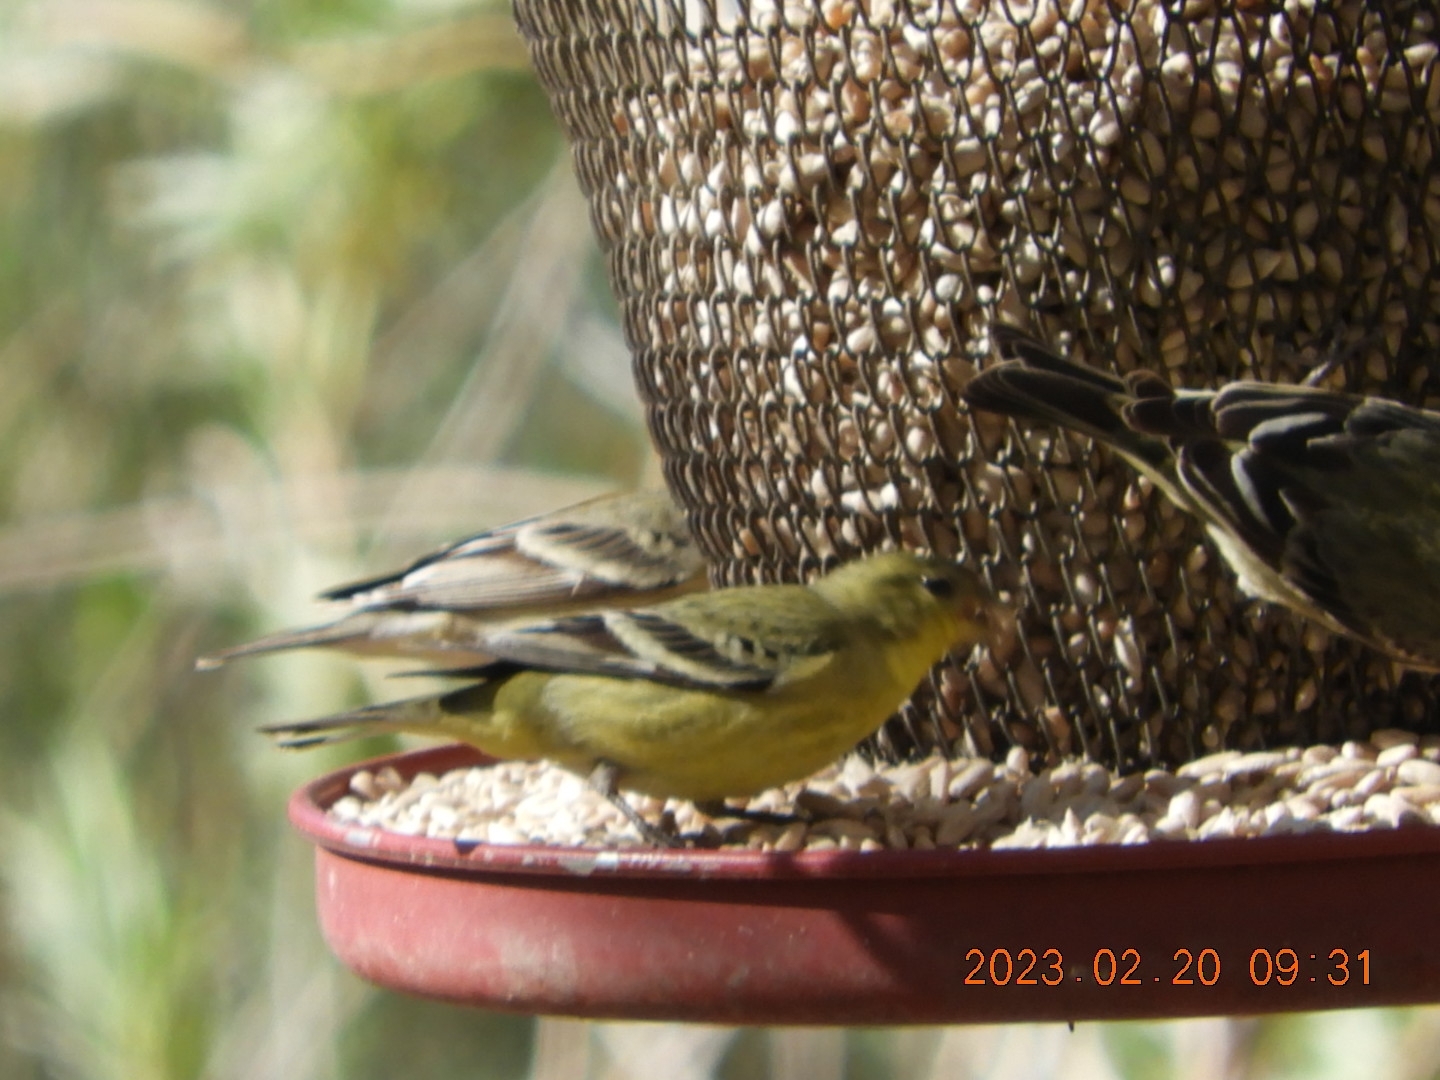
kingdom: Animalia
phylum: Chordata
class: Aves
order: Passeriformes
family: Fringillidae
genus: Spinus
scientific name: Spinus psaltria
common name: Lesser goldfinch
